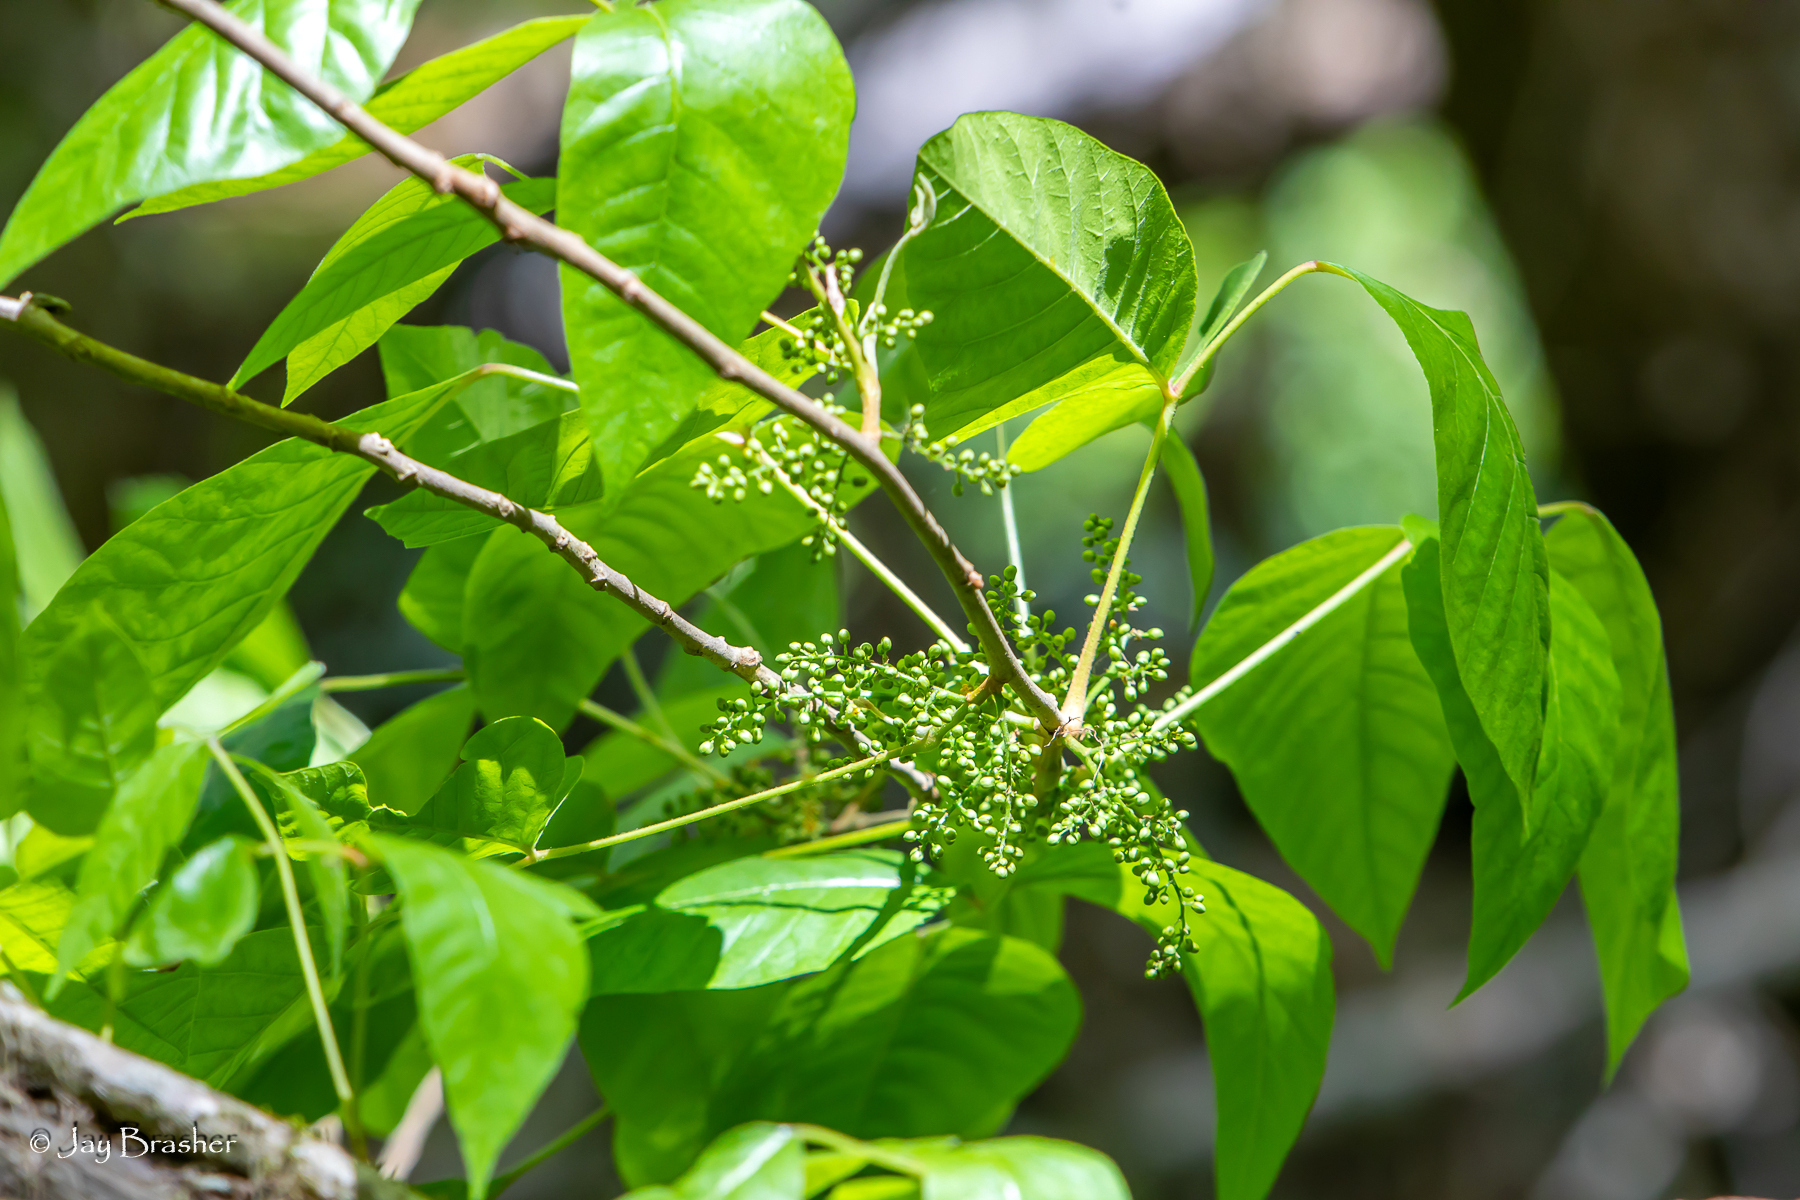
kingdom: Plantae
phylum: Tracheophyta
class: Magnoliopsida
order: Sapindales
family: Anacardiaceae
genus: Toxicodendron
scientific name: Toxicodendron radicans
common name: Poison ivy
